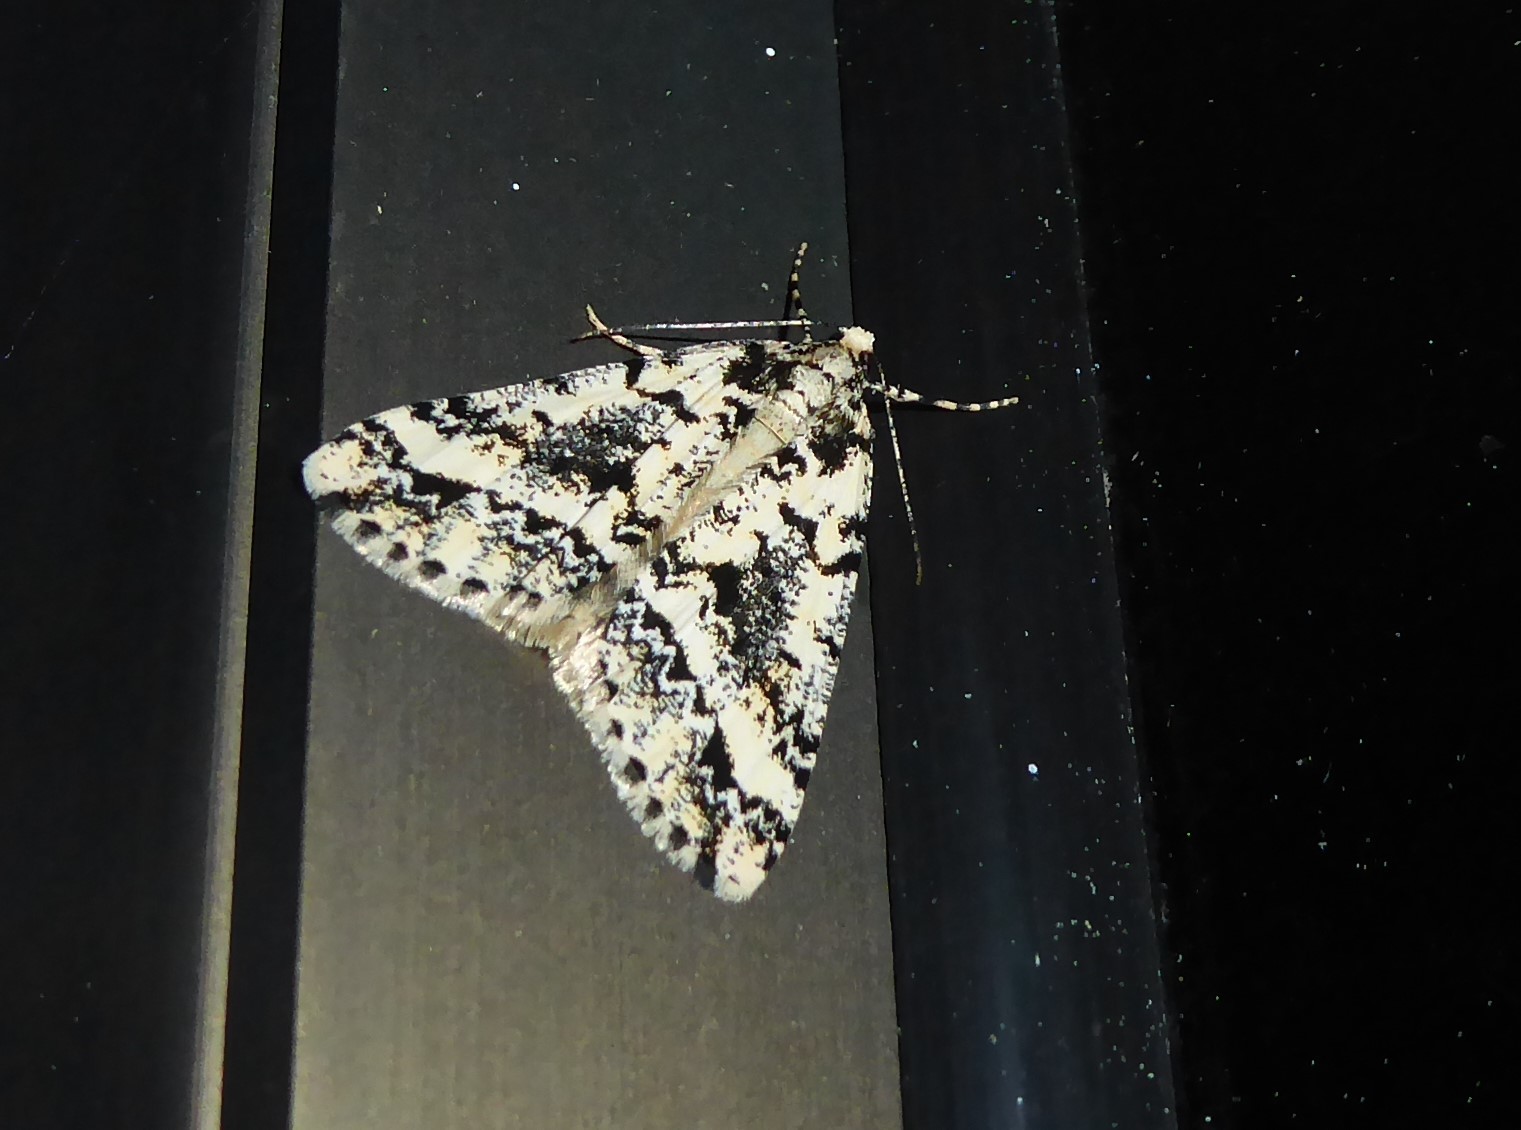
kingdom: Animalia
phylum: Arthropoda
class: Insecta
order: Lepidoptera
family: Geometridae
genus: Pseudocoremia
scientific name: Pseudocoremia leucelaea
